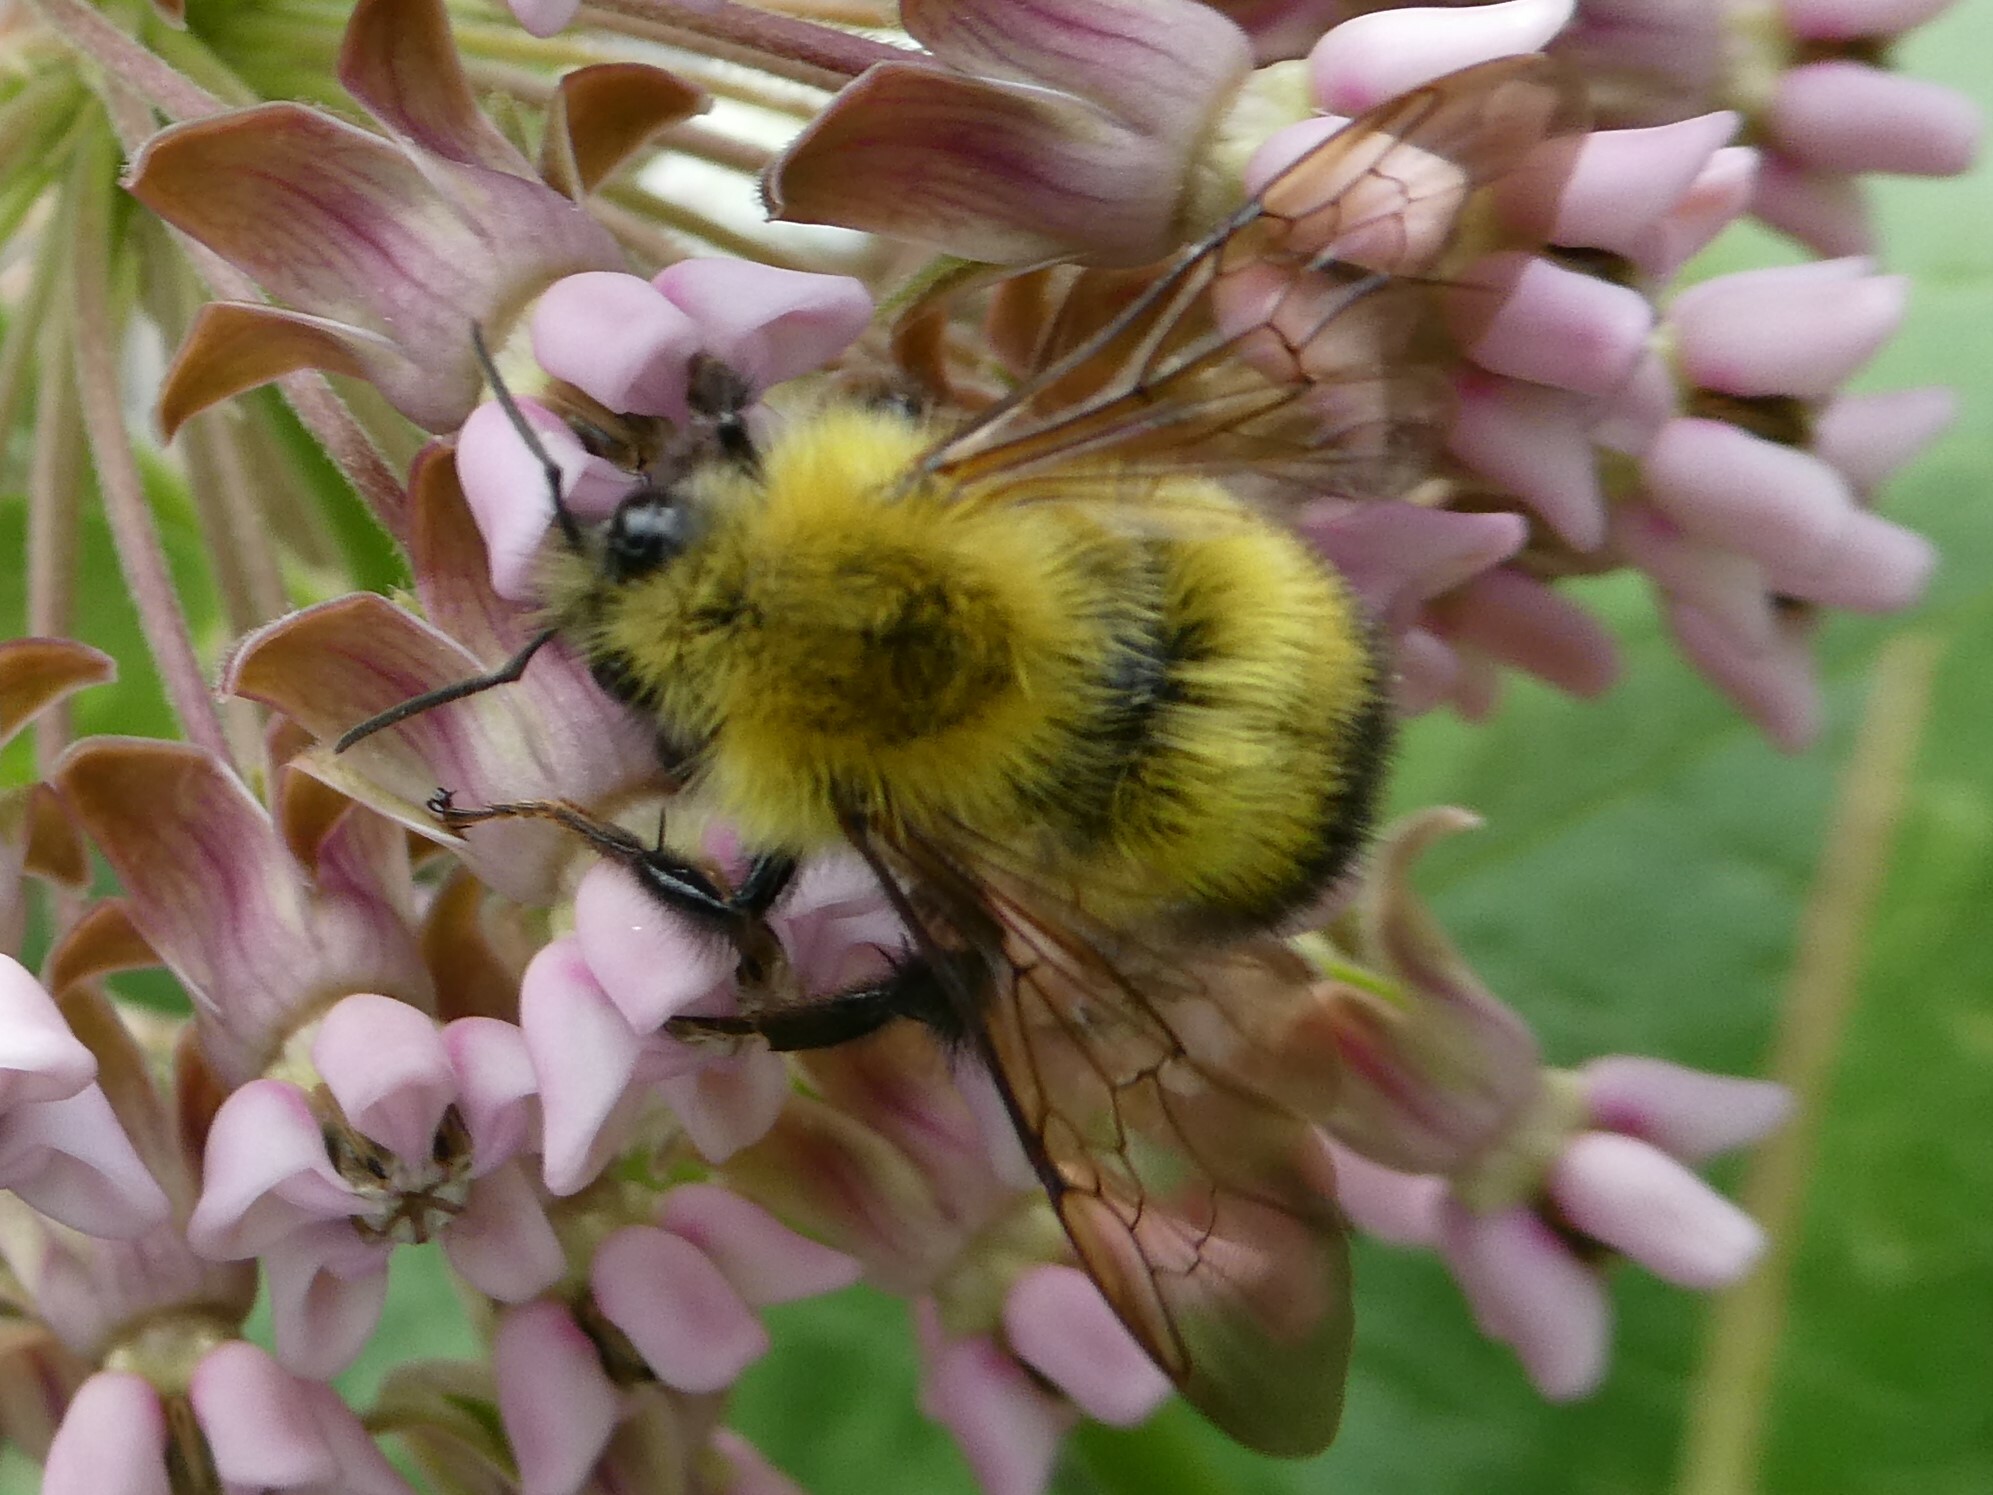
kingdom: Animalia
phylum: Arthropoda
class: Insecta
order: Hymenoptera
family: Apidae
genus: Bombus
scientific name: Bombus perplexus
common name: Confusing bumble bee
